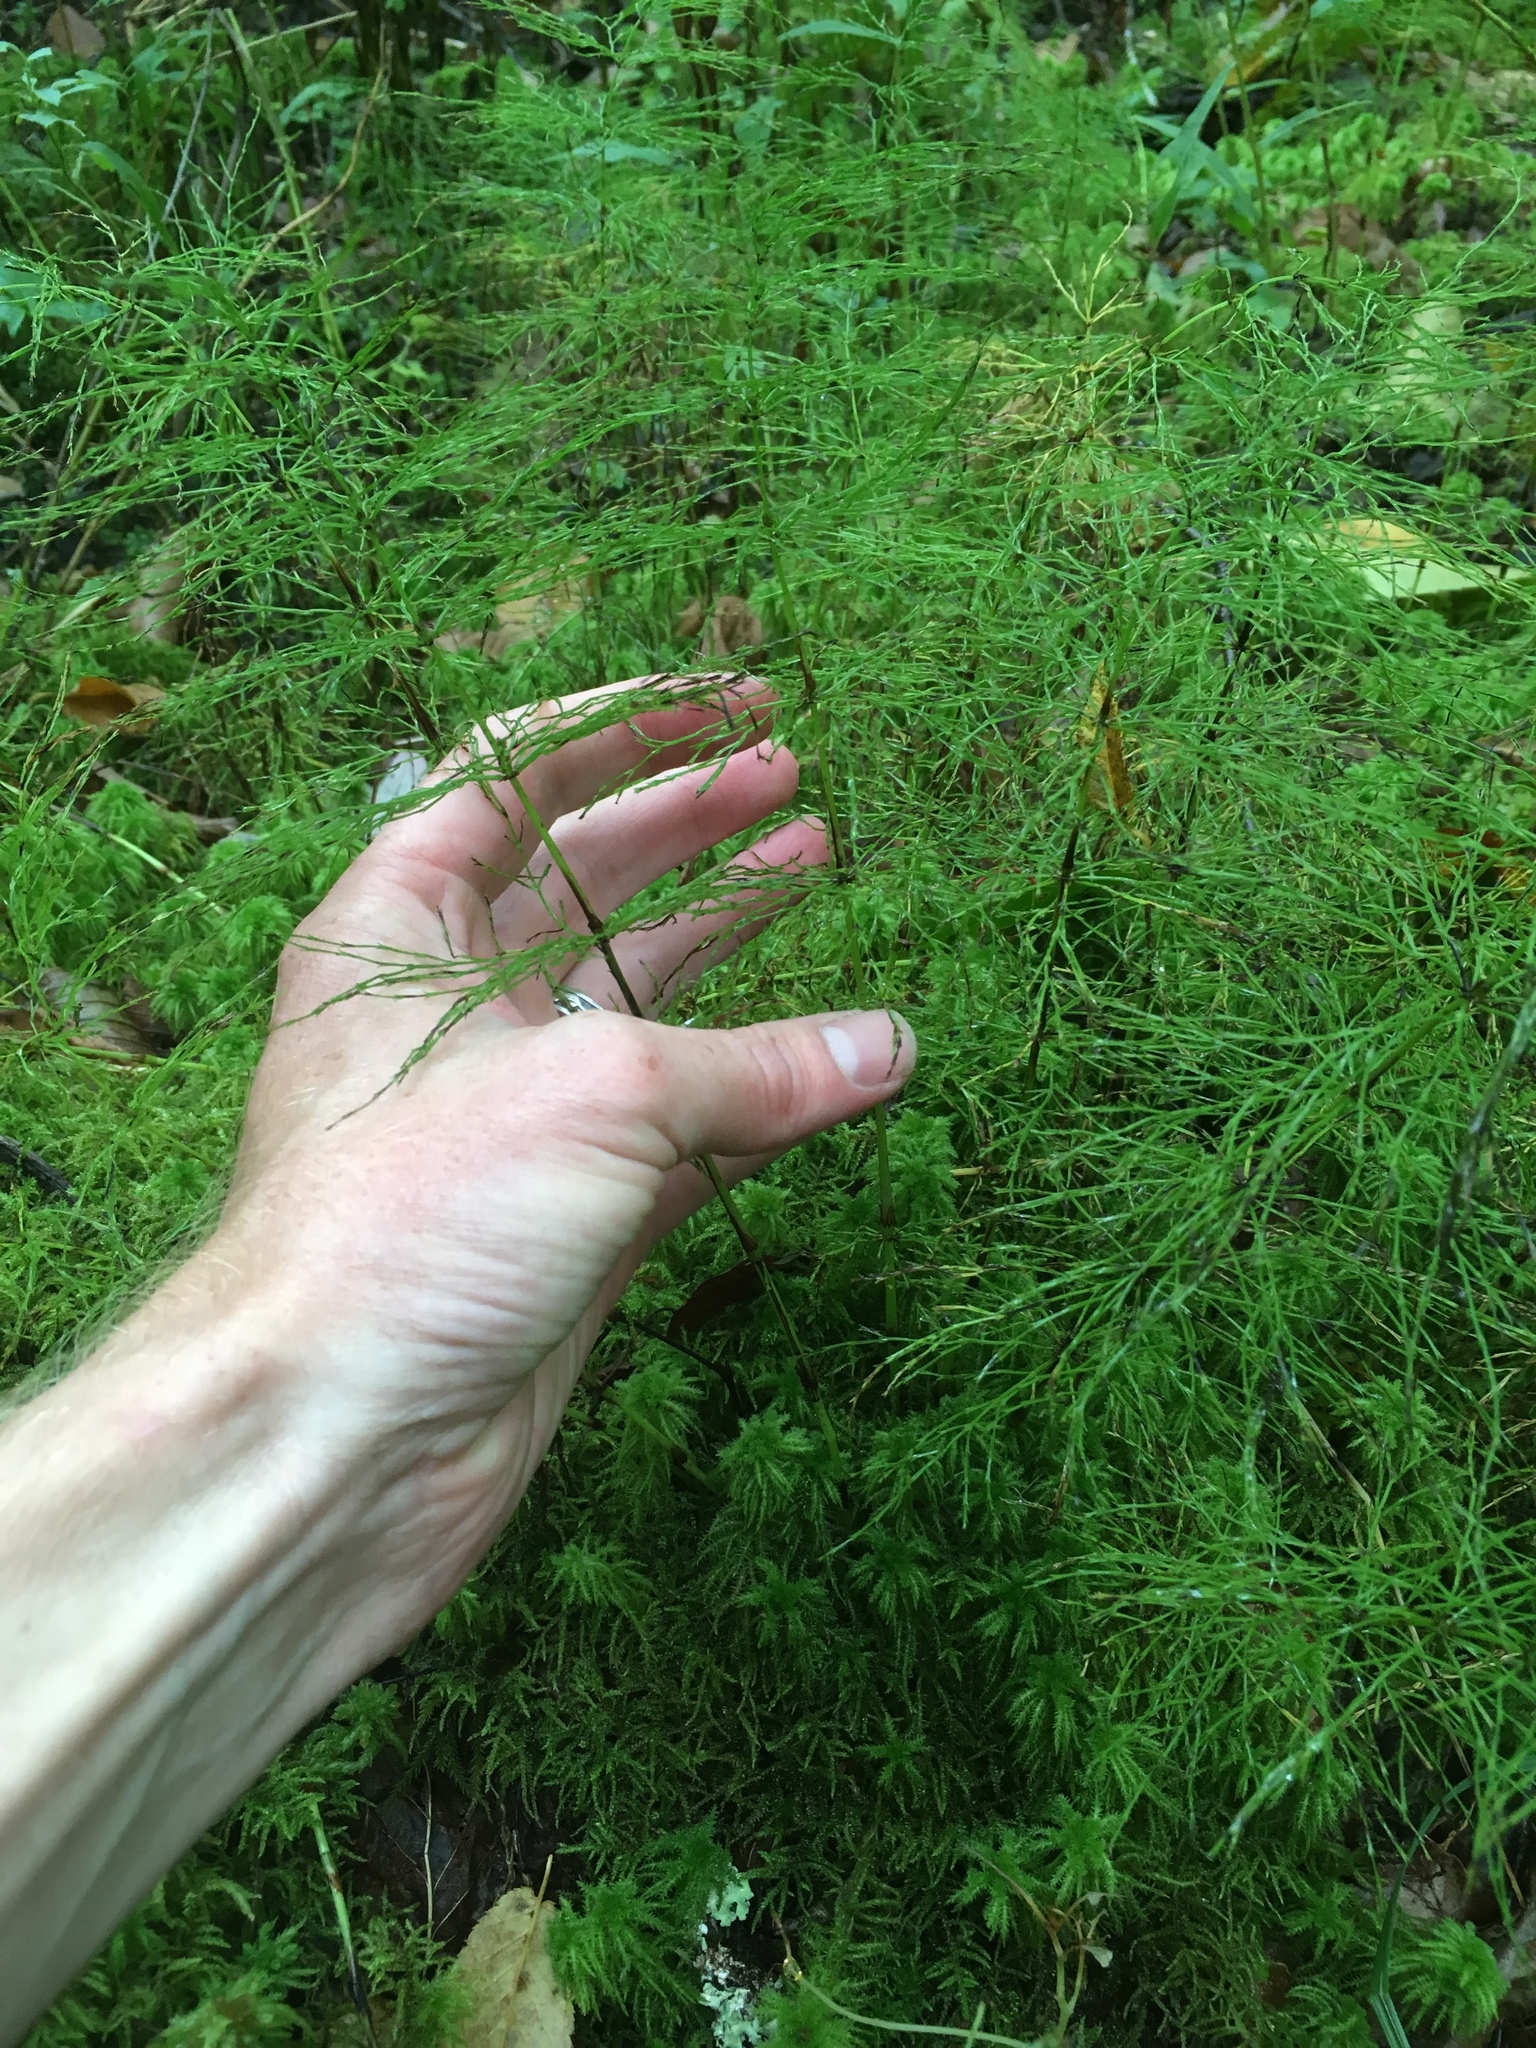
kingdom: Plantae
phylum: Tracheophyta
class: Polypodiopsida
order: Equisetales
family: Equisetaceae
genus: Equisetum
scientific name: Equisetum sylvaticum
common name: Wood horsetail
